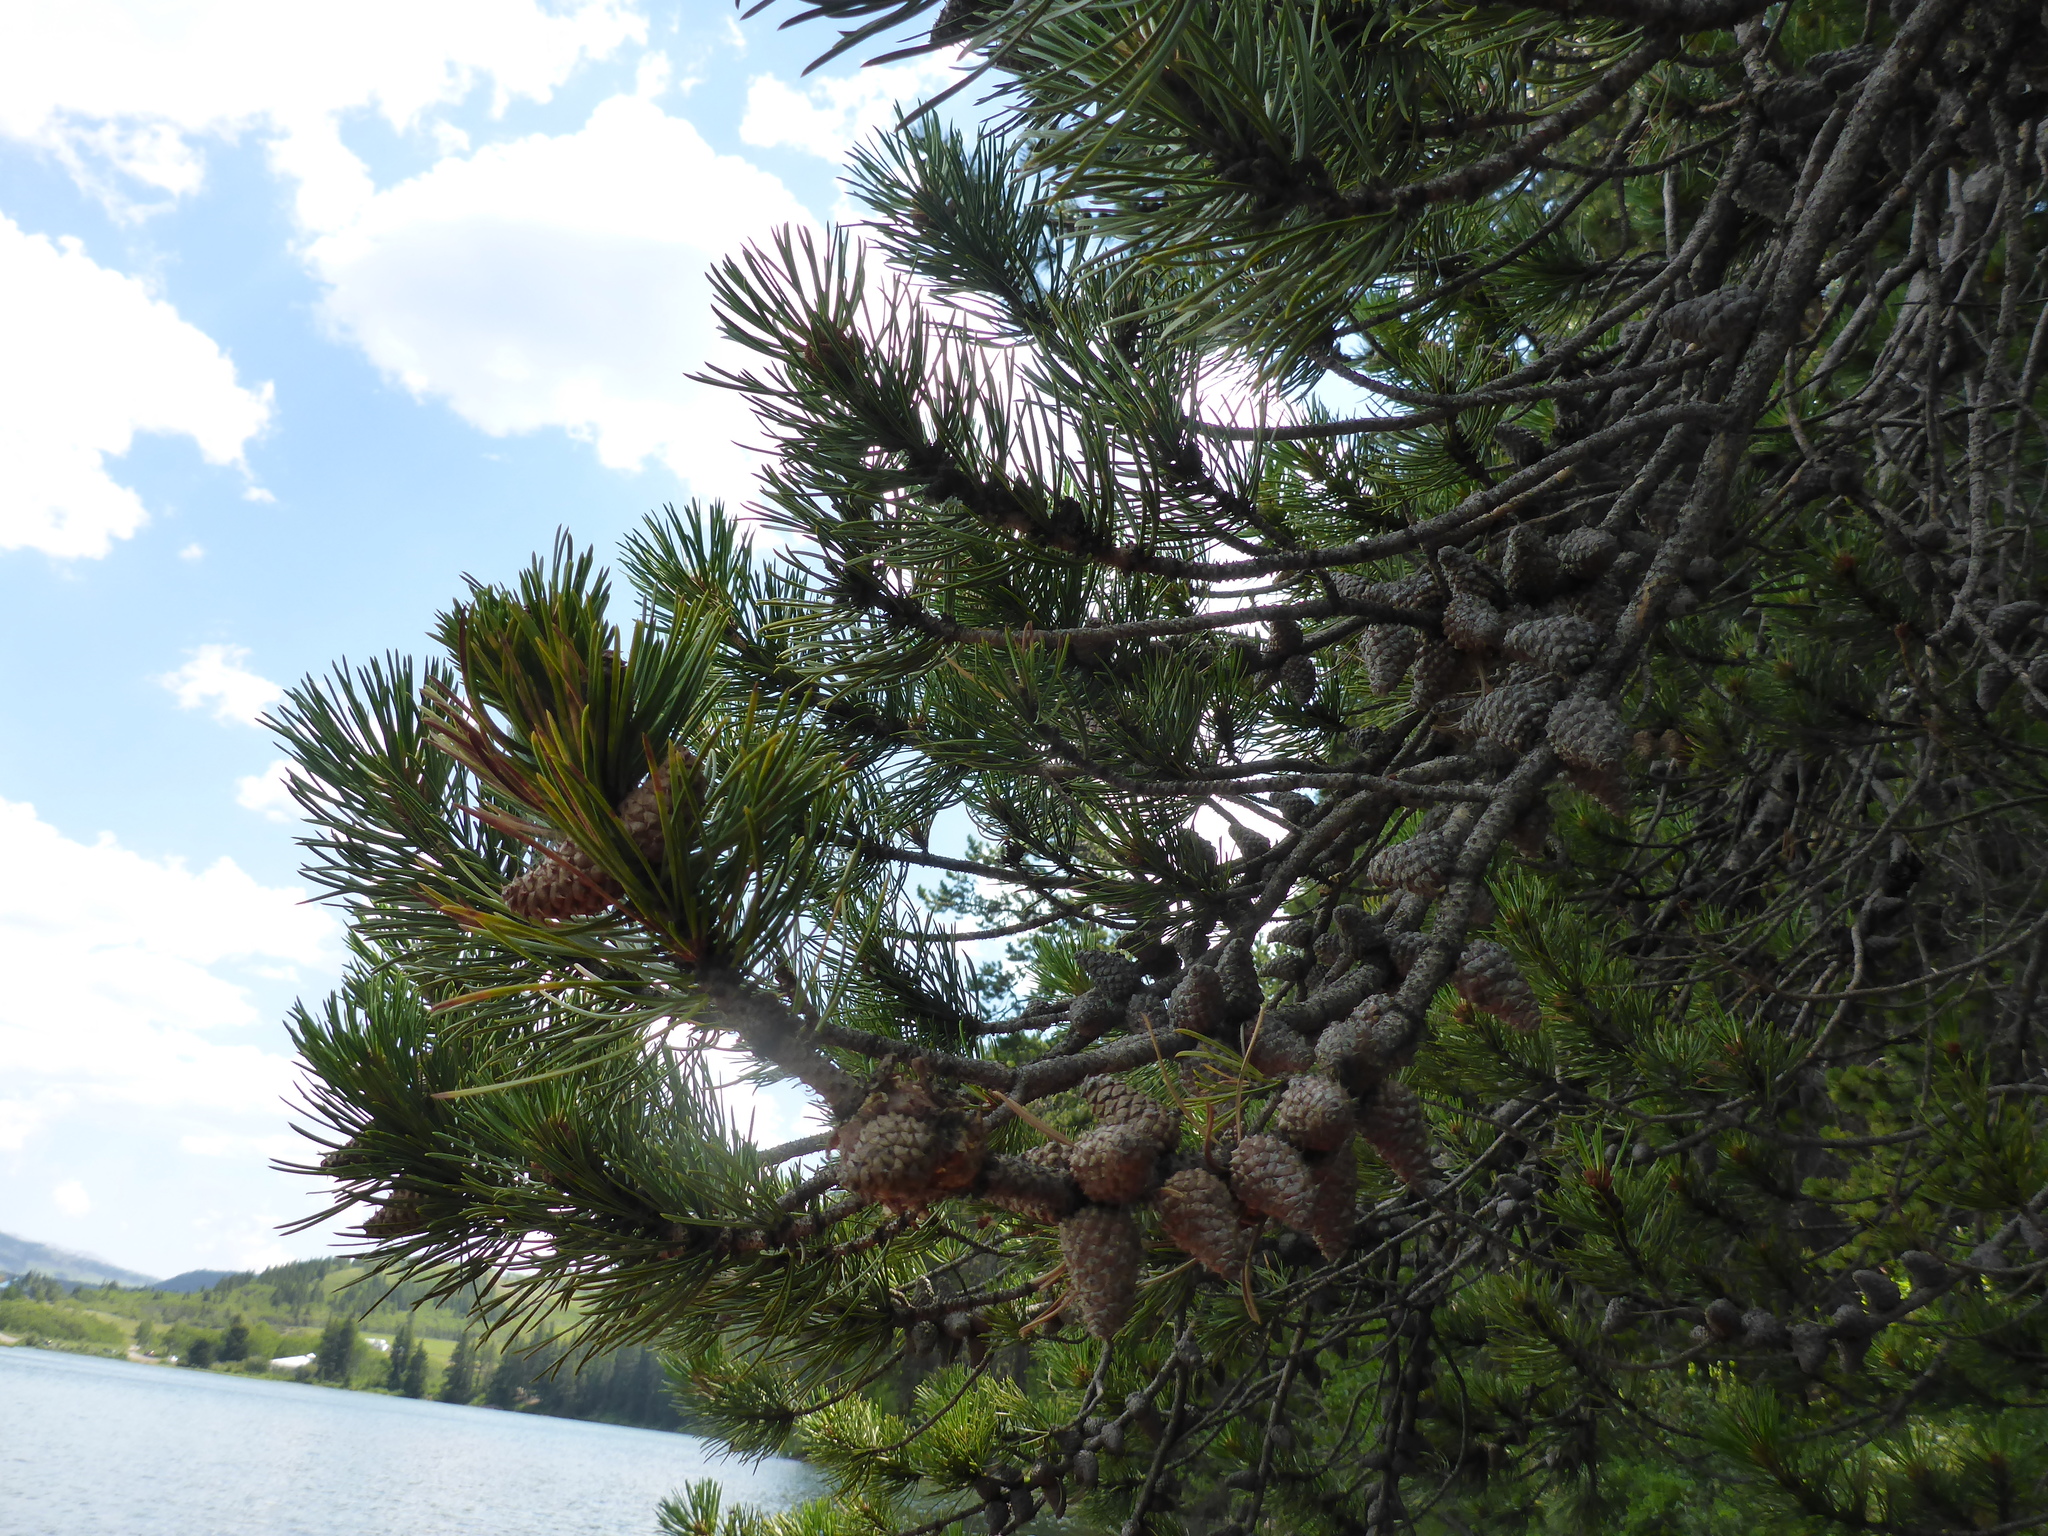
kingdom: Plantae
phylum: Tracheophyta
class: Pinopsida
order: Pinales
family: Pinaceae
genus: Pinus
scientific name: Pinus contorta
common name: Lodgepole pine
